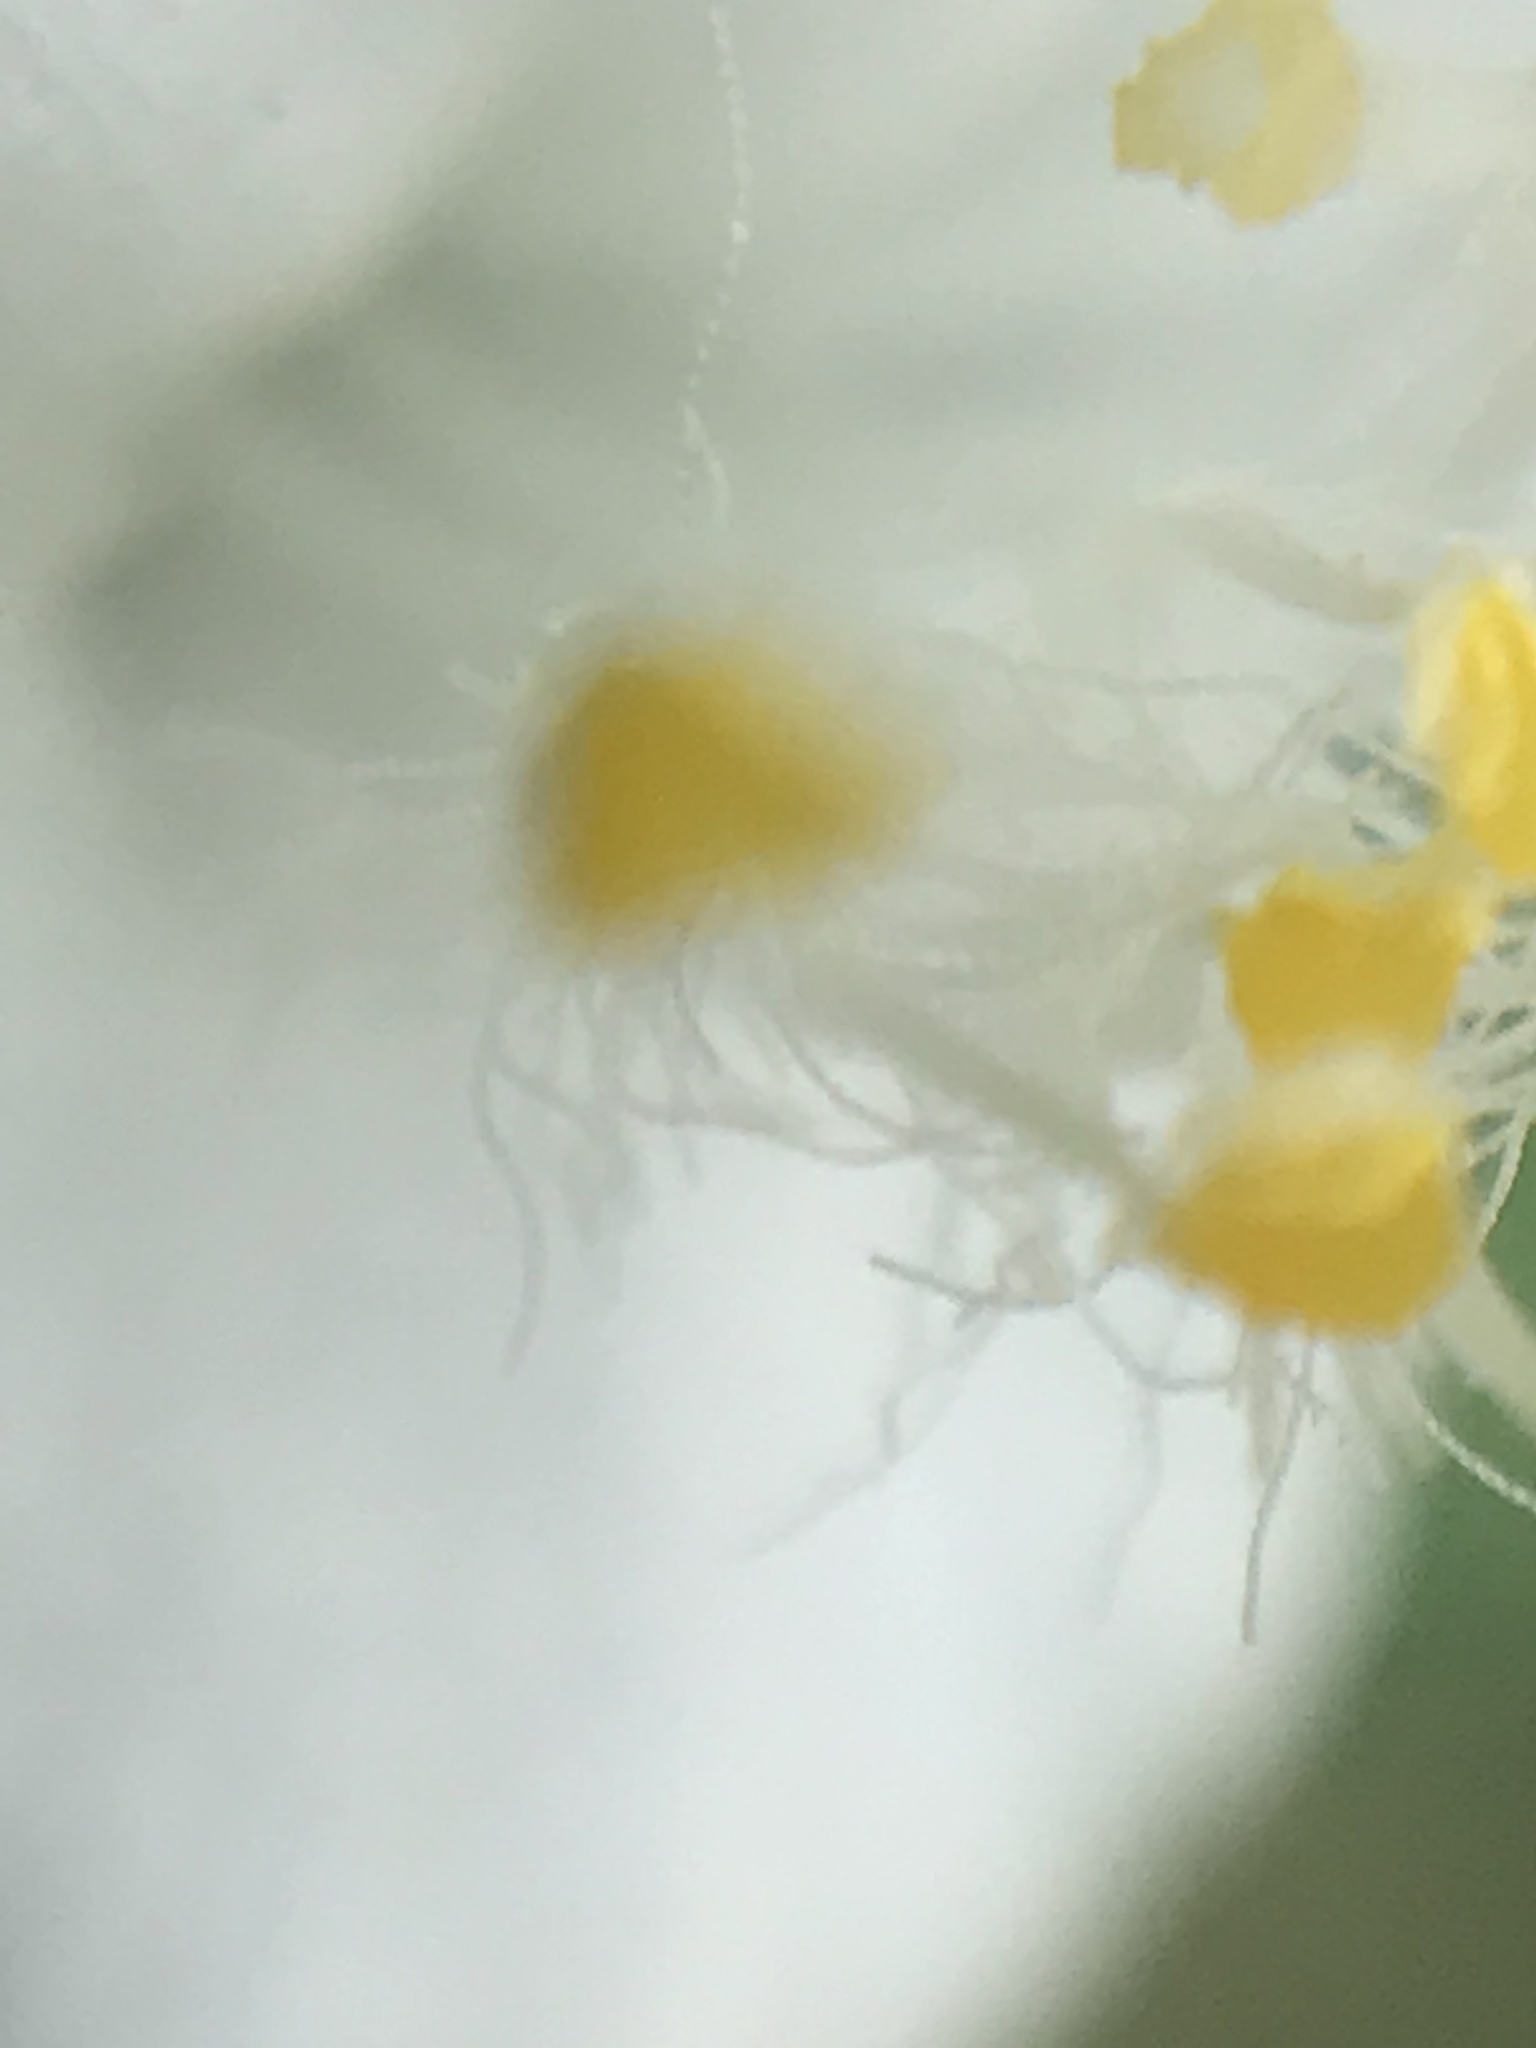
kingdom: Plantae
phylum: Tracheophyta
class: Liliopsida
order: Commelinales
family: Commelinaceae
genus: Tradescantia
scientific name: Tradescantia brevifolia
